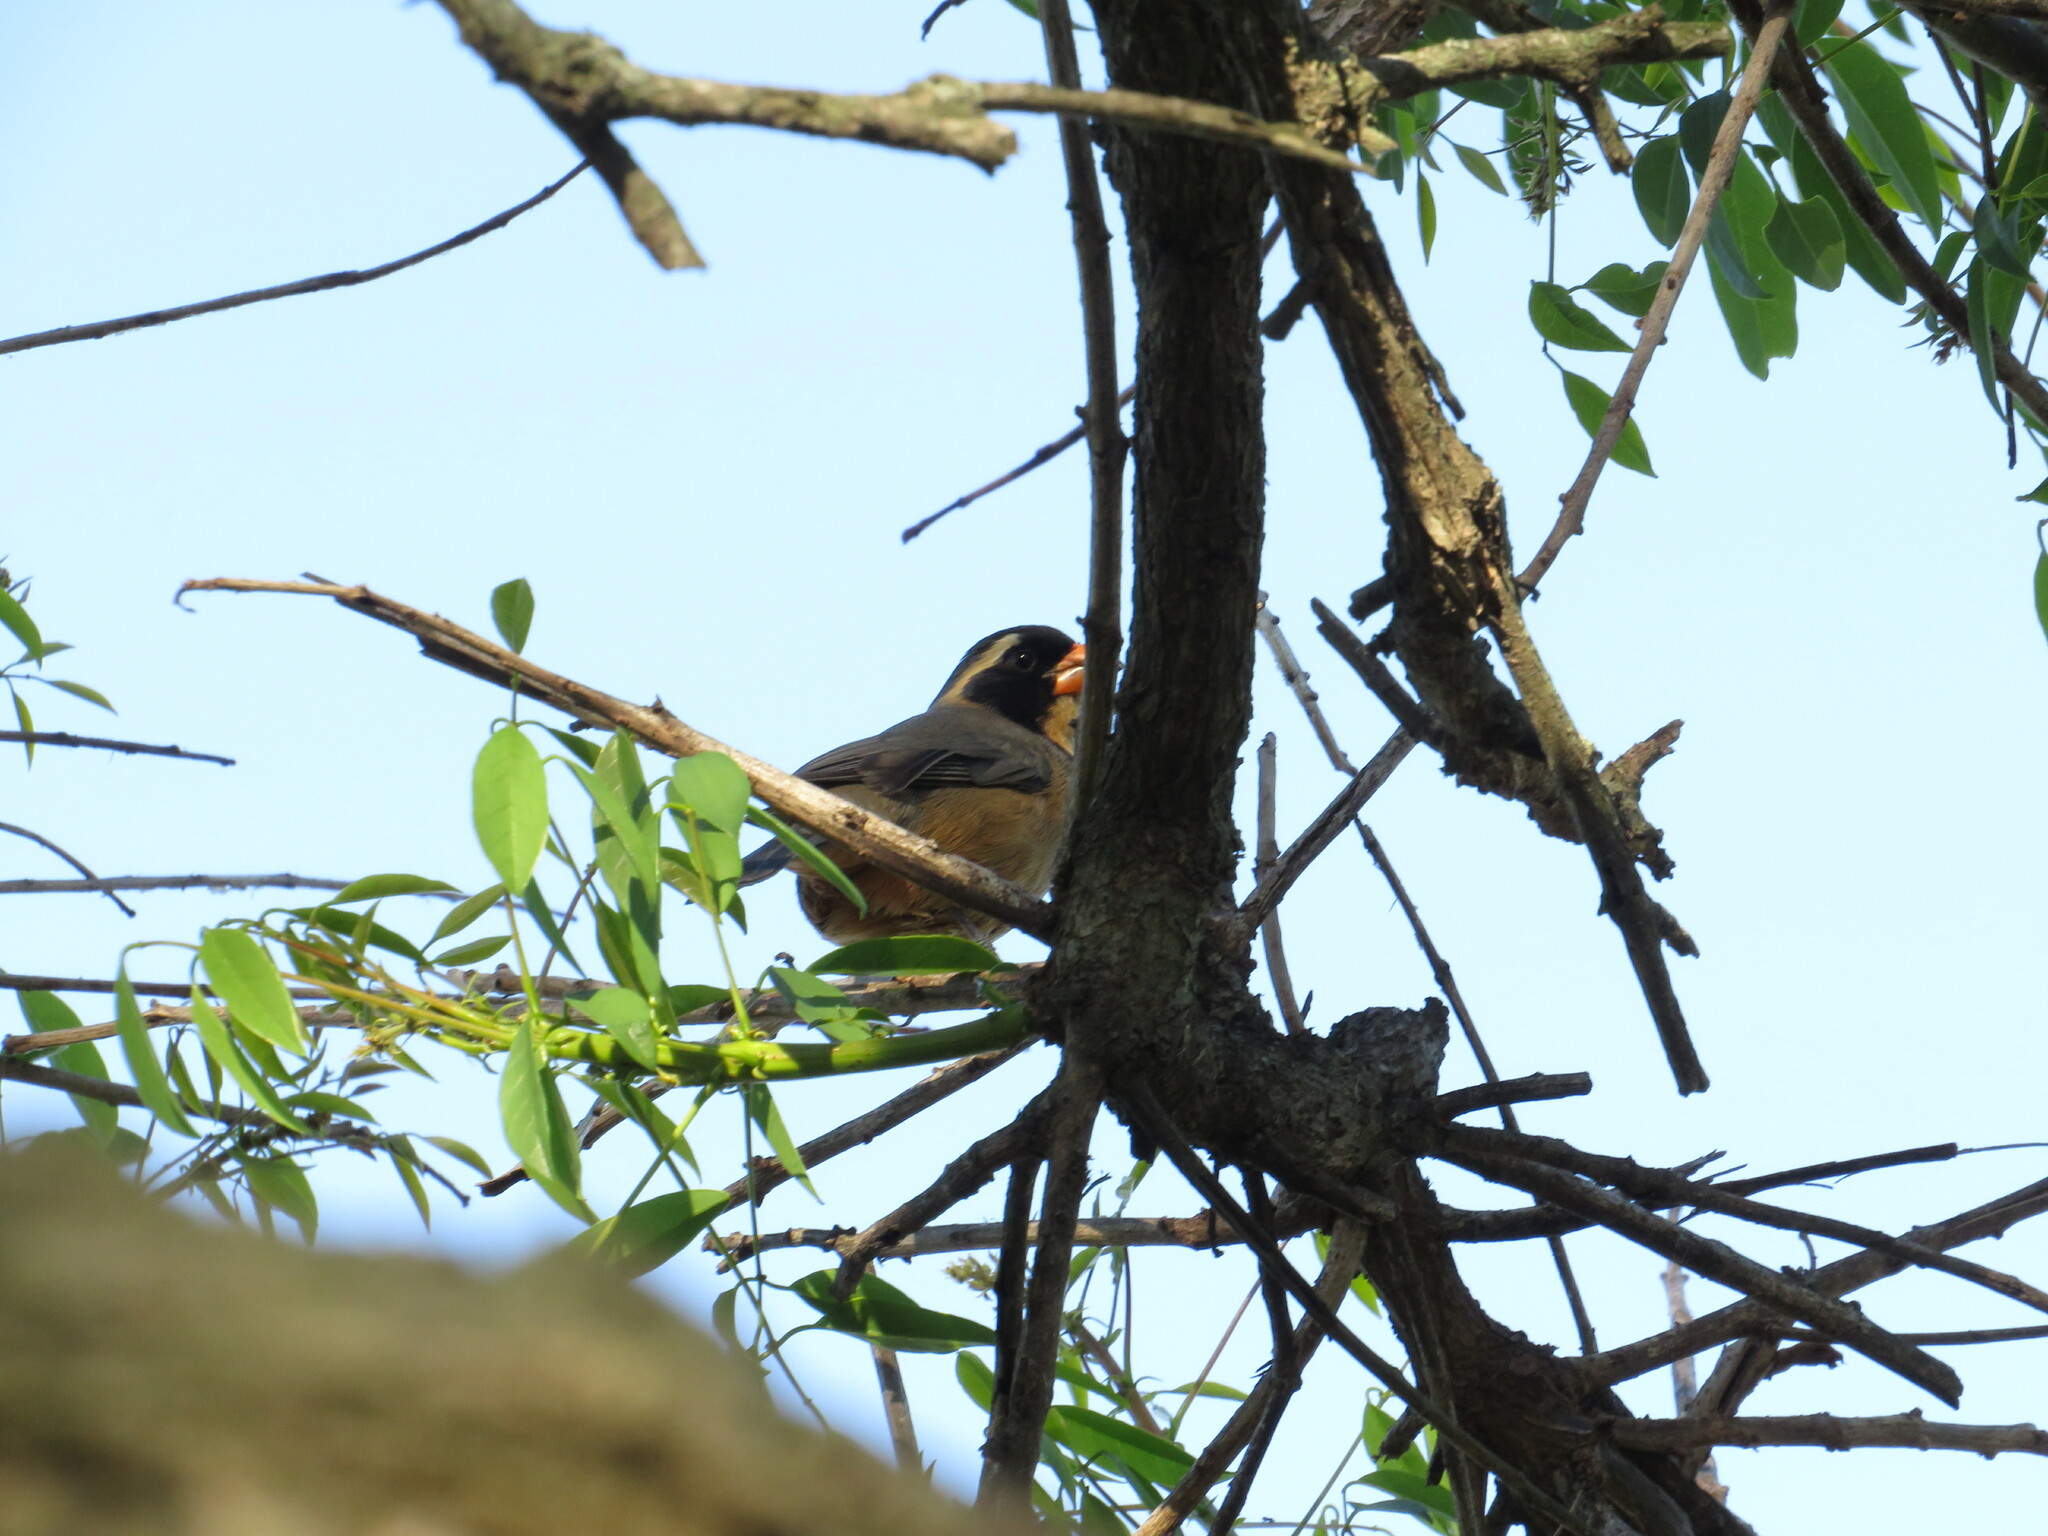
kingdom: Animalia
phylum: Chordata
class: Aves
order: Passeriformes
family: Thraupidae
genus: Saltator
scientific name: Saltator aurantiirostris
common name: Golden-billed saltator
